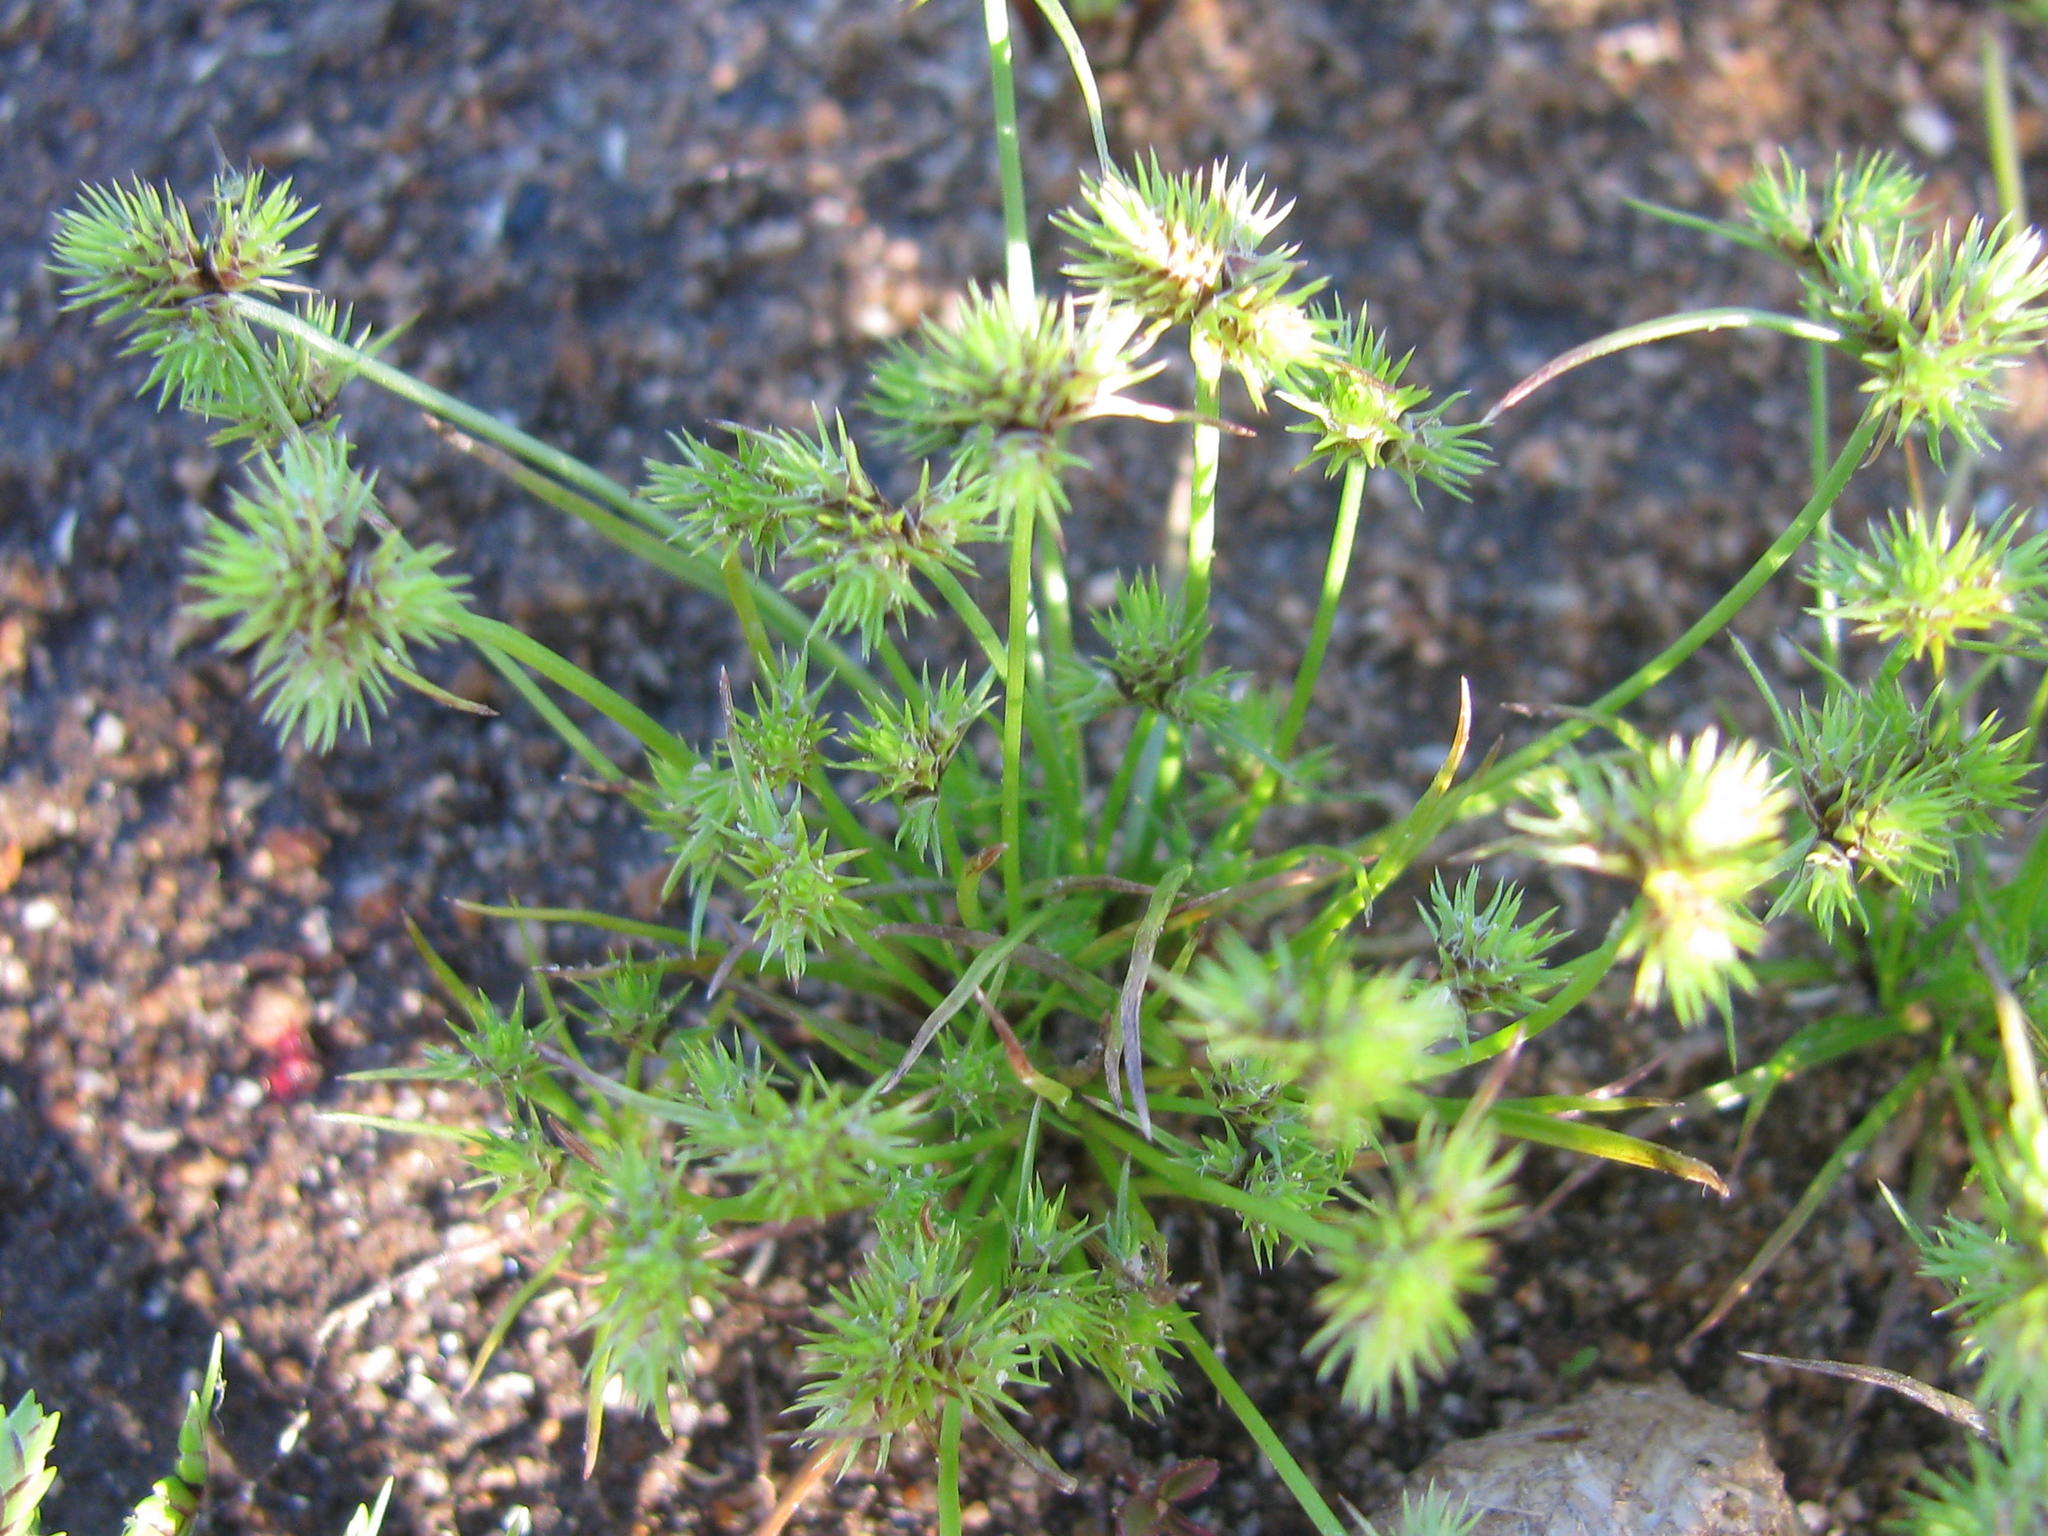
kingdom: Plantae
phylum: Tracheophyta
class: Liliopsida
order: Poales
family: Cyperaceae
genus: Isolepis
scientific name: Isolepis hystrix
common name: Bottlebrush bulrush
